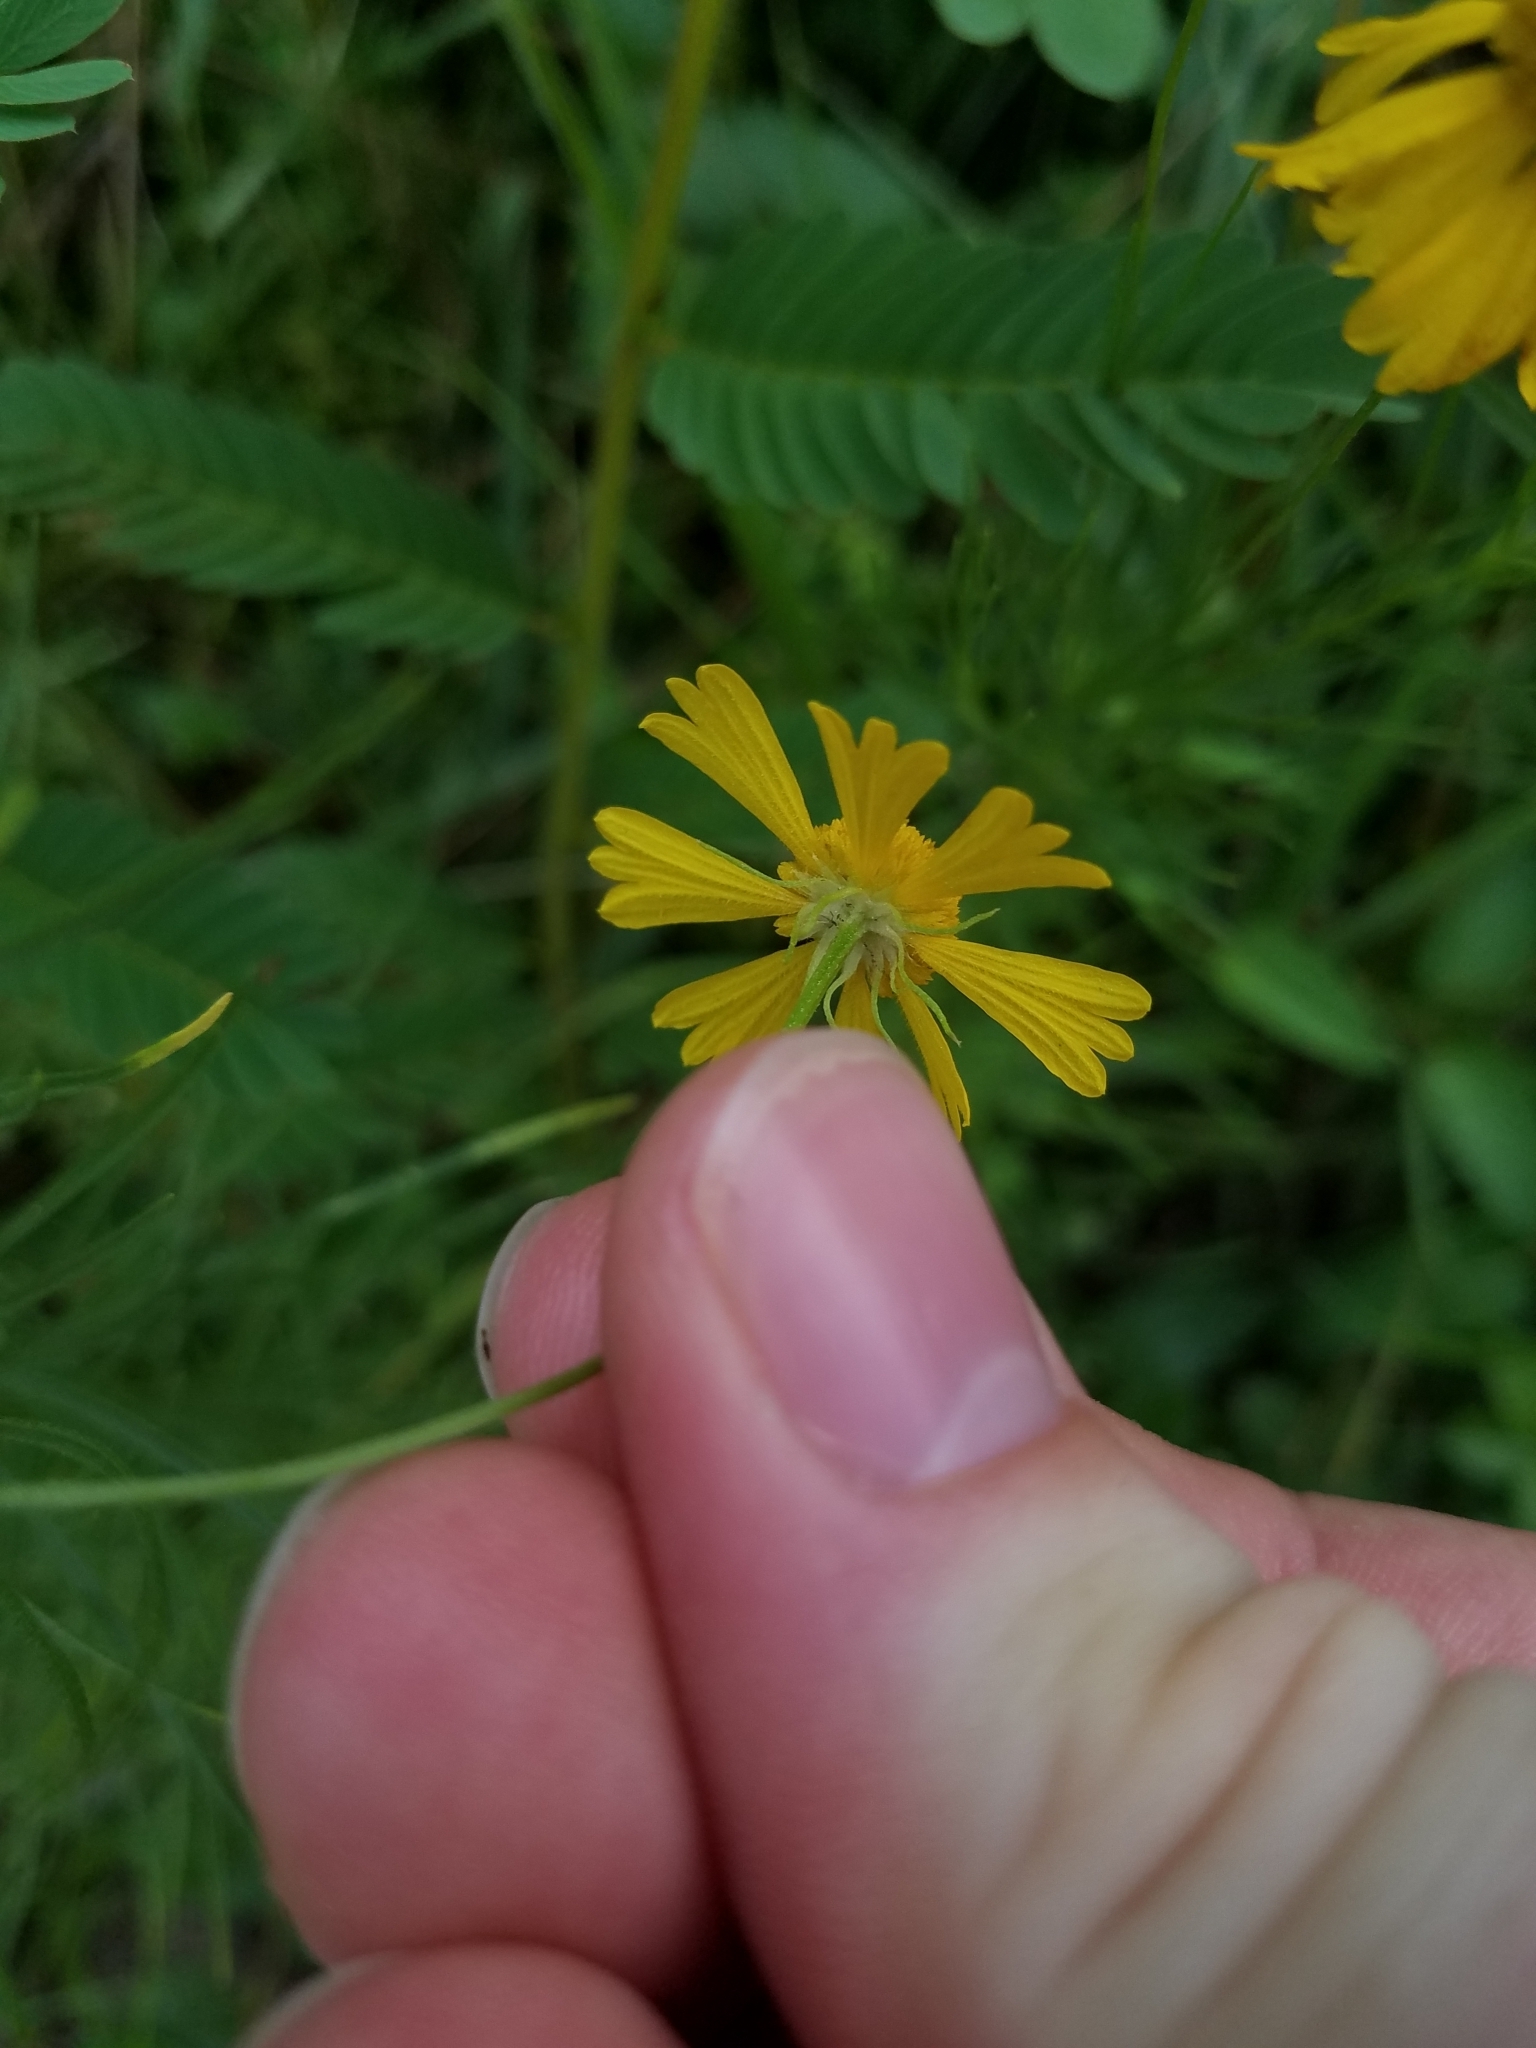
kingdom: Plantae
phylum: Tracheophyta
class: Magnoliopsida
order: Asterales
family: Asteraceae
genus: Helenium
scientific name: Helenium amarum
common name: Bitter sneezeweed
